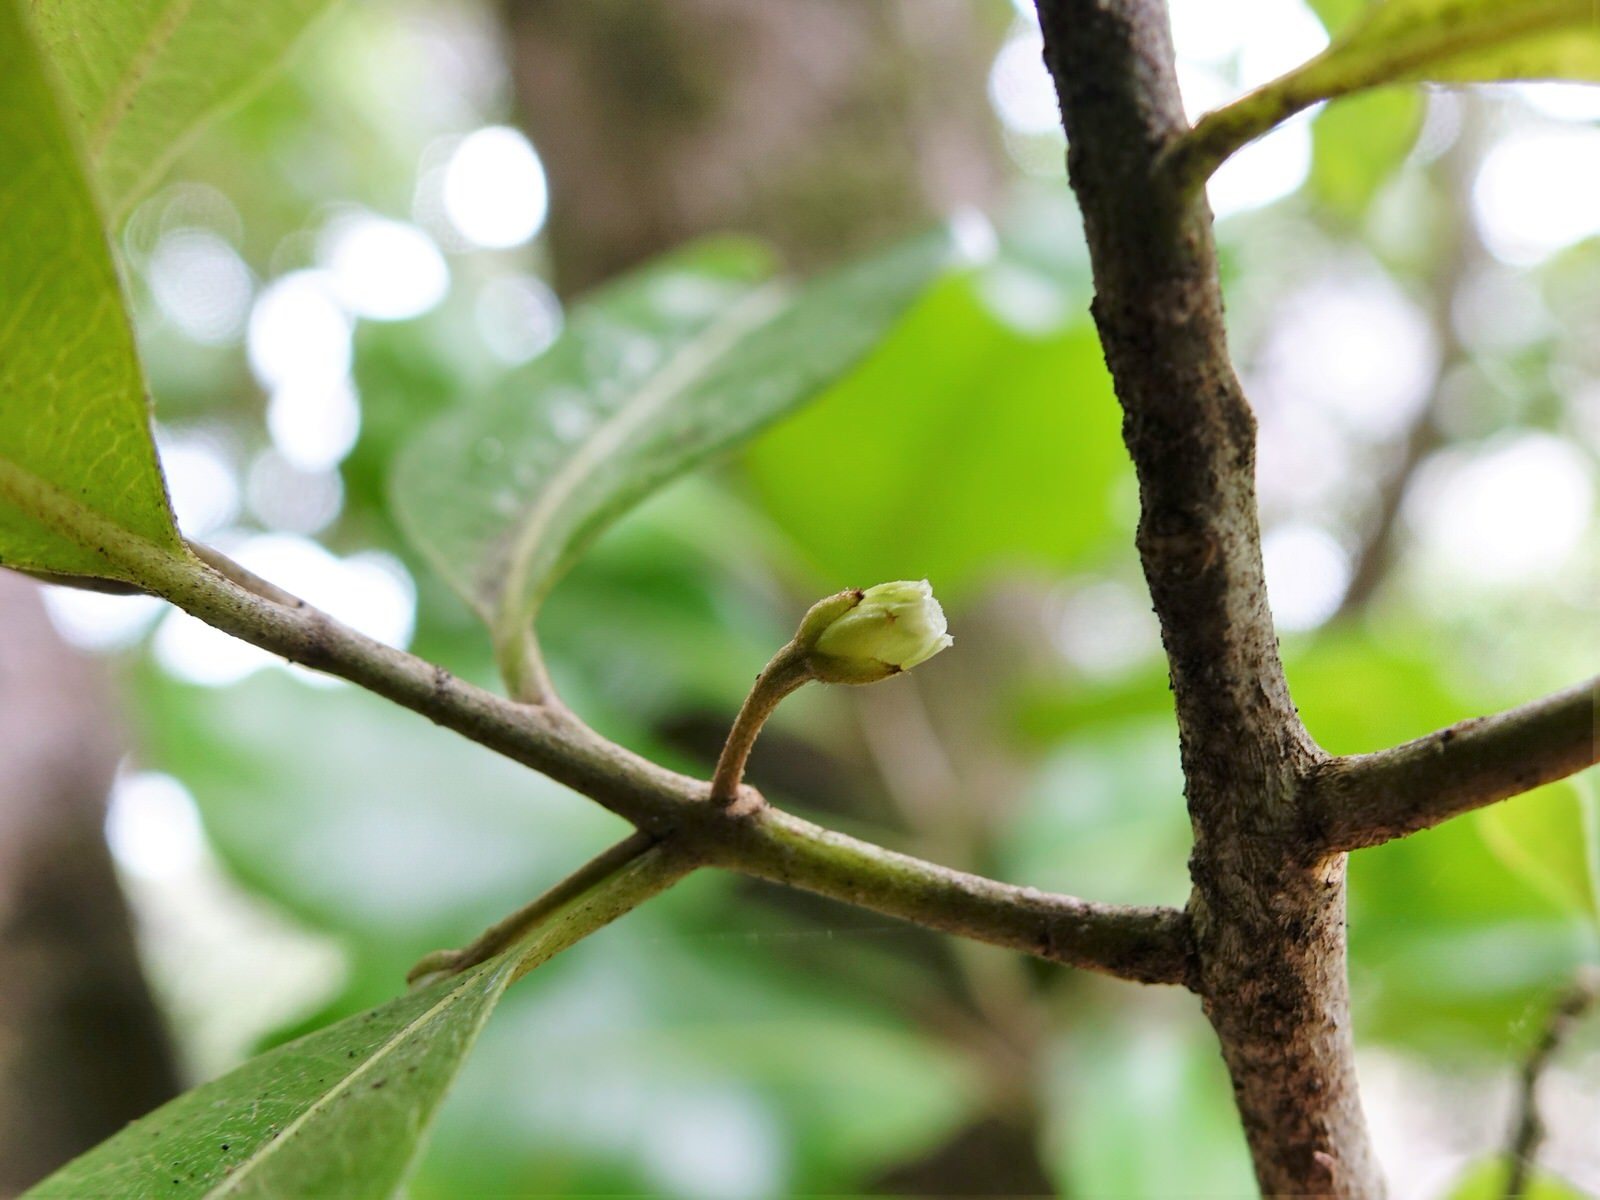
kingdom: Plantae
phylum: Tracheophyta
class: Magnoliopsida
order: Ericales
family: Sapotaceae
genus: Planchonella
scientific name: Planchonella costata
